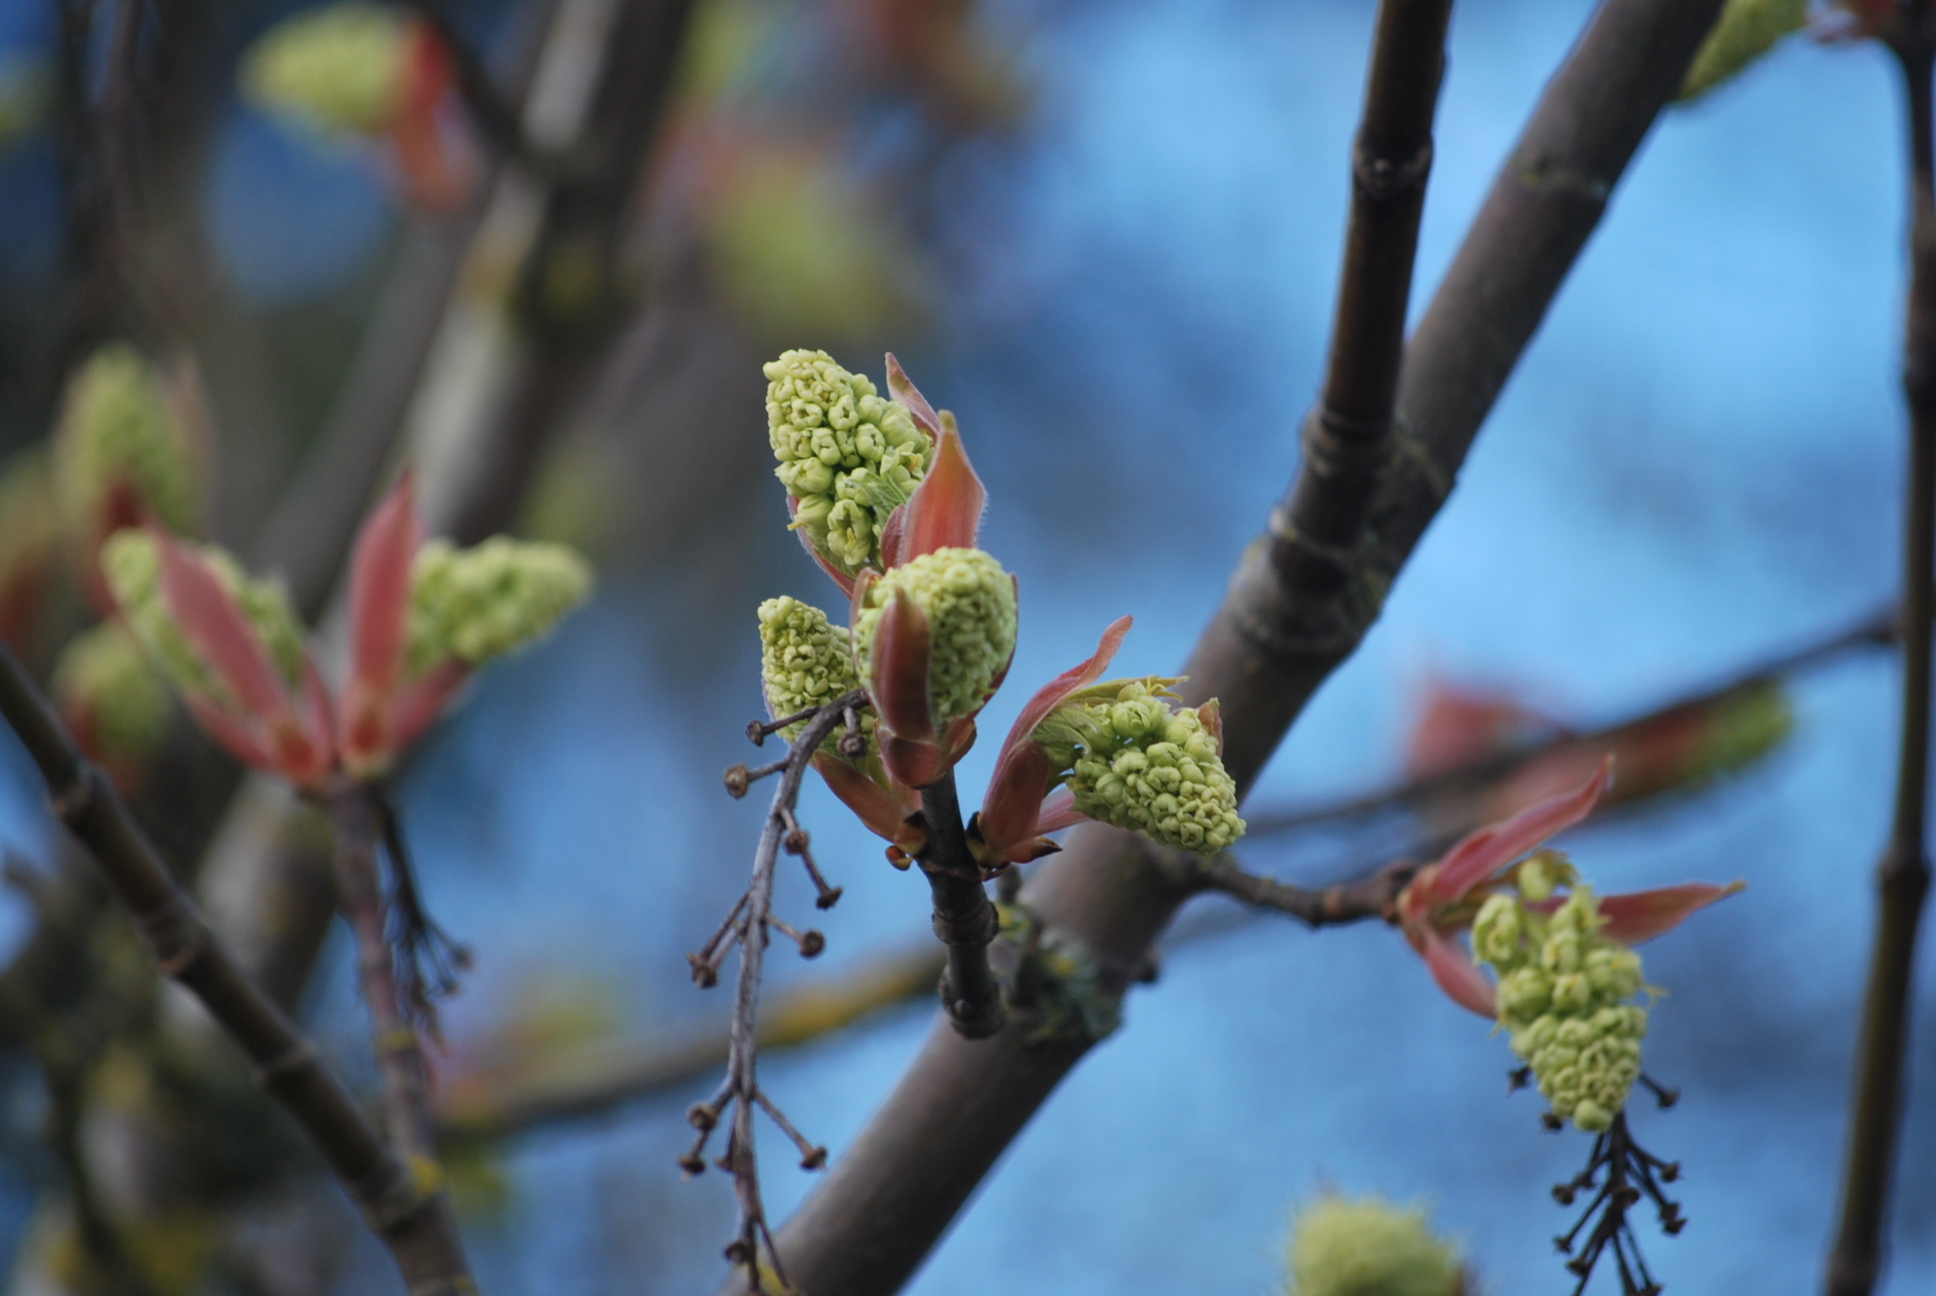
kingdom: Plantae
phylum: Tracheophyta
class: Magnoliopsida
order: Sapindales
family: Sapindaceae
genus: Acer
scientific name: Acer macrophyllum
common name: Oregon maple
